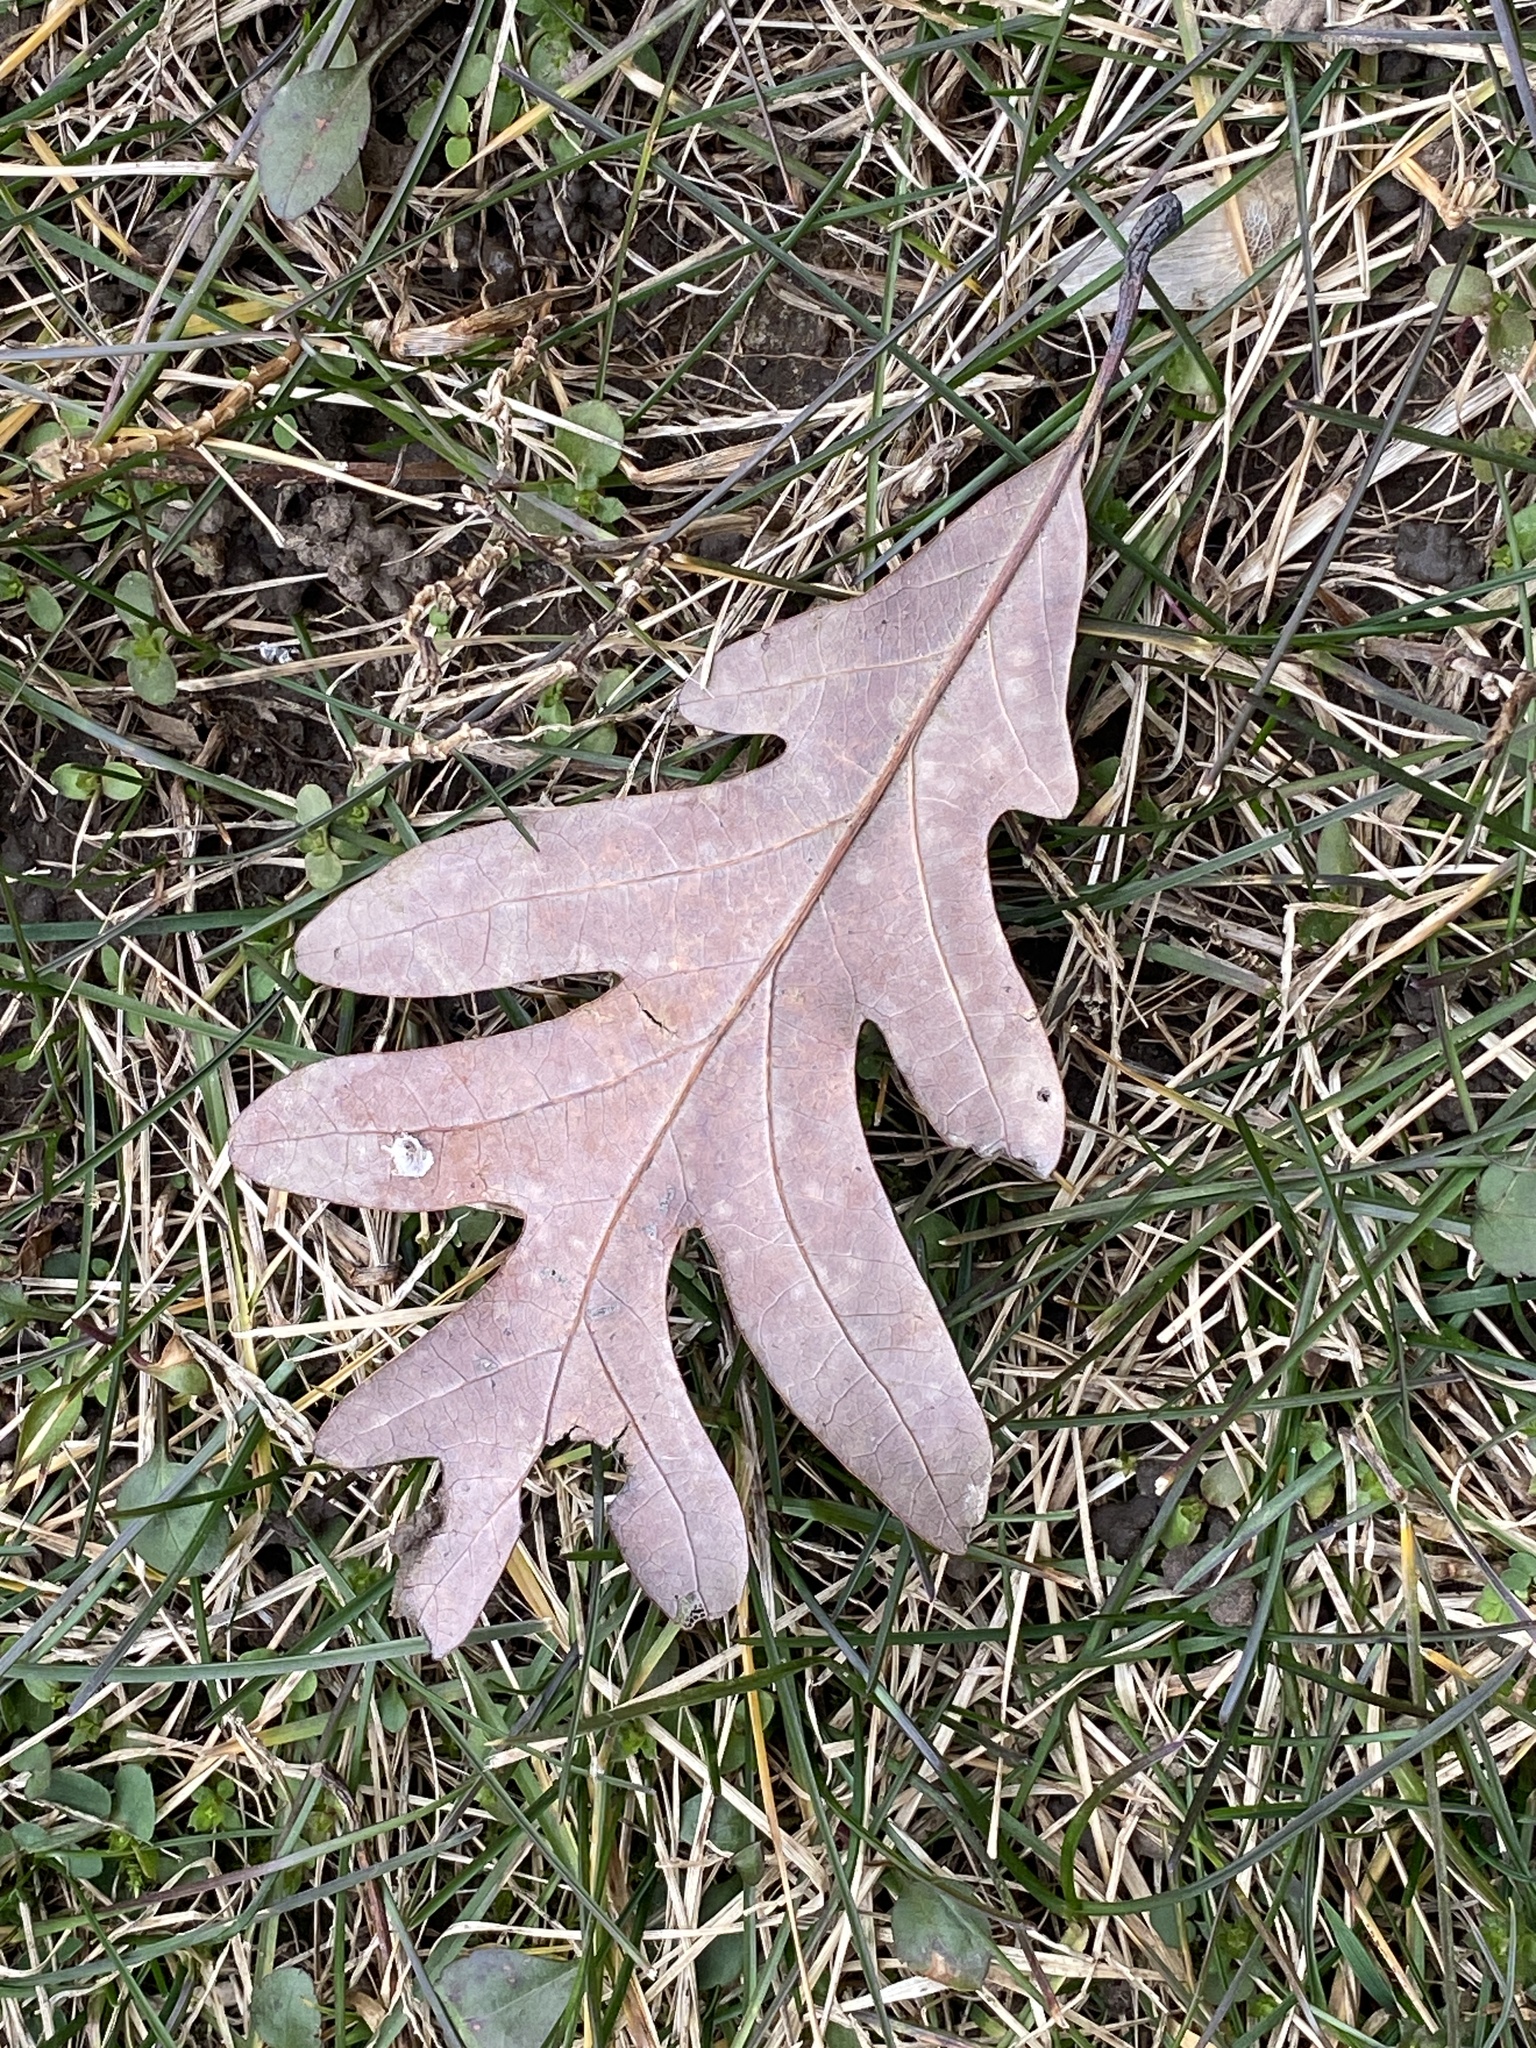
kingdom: Plantae
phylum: Tracheophyta
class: Magnoliopsida
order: Fagales
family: Fagaceae
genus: Quercus
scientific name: Quercus alba
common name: White oak
